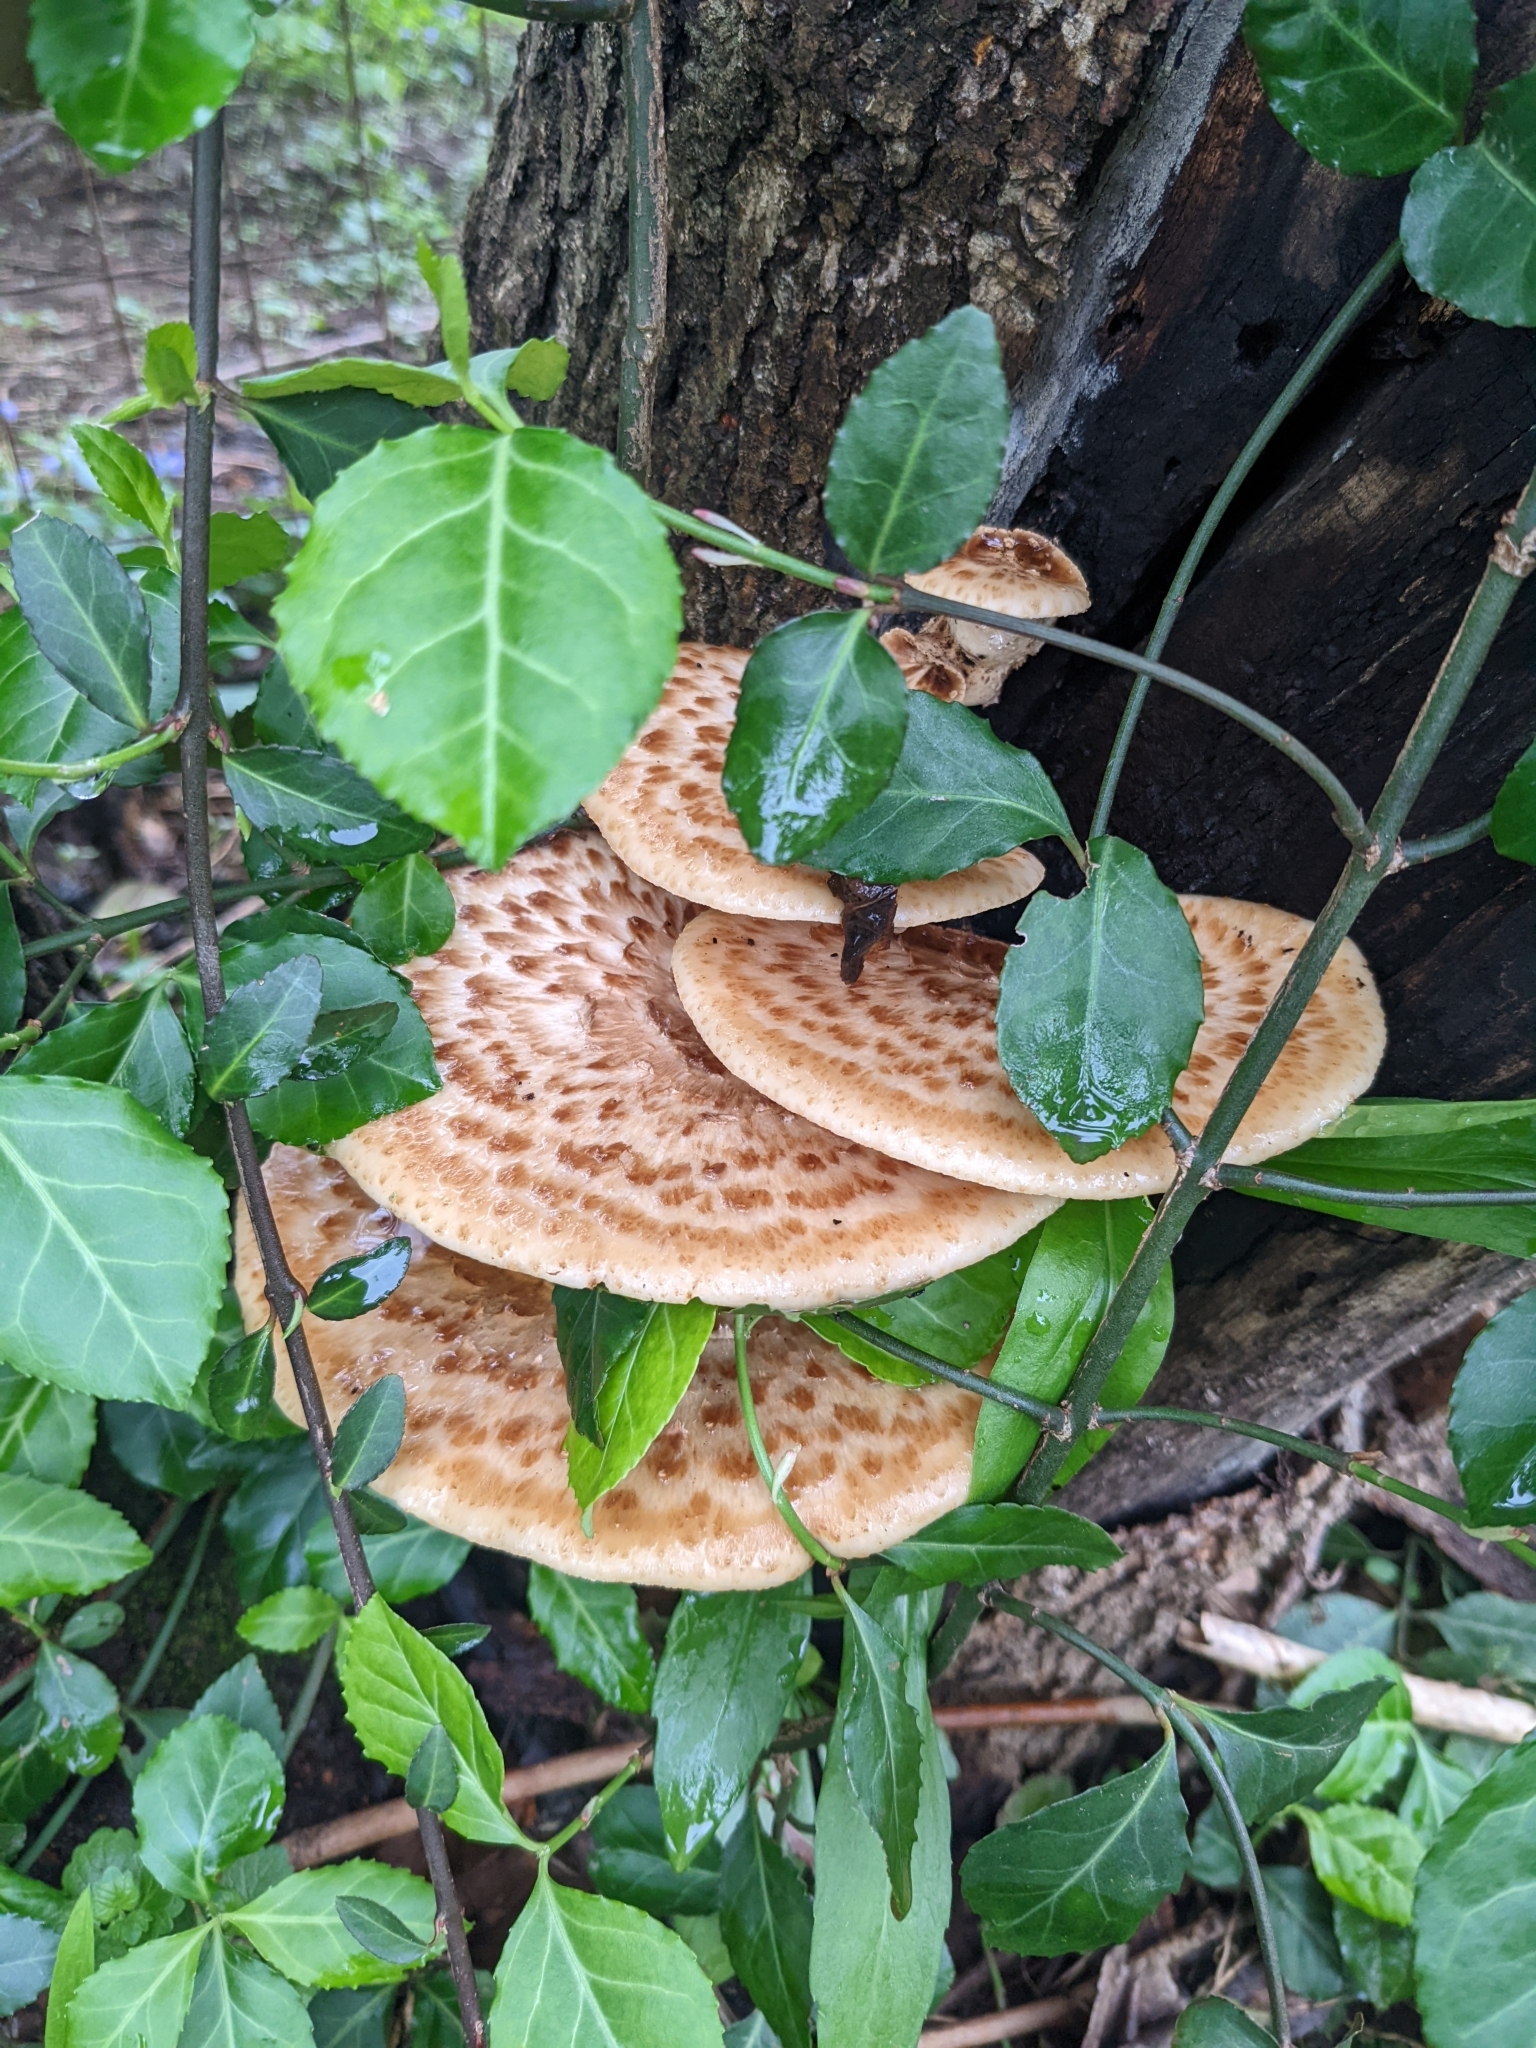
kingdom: Fungi
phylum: Basidiomycota
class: Agaricomycetes
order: Polyporales
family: Polyporaceae
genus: Cerioporus
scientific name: Cerioporus squamosus
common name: Dryad's saddle
